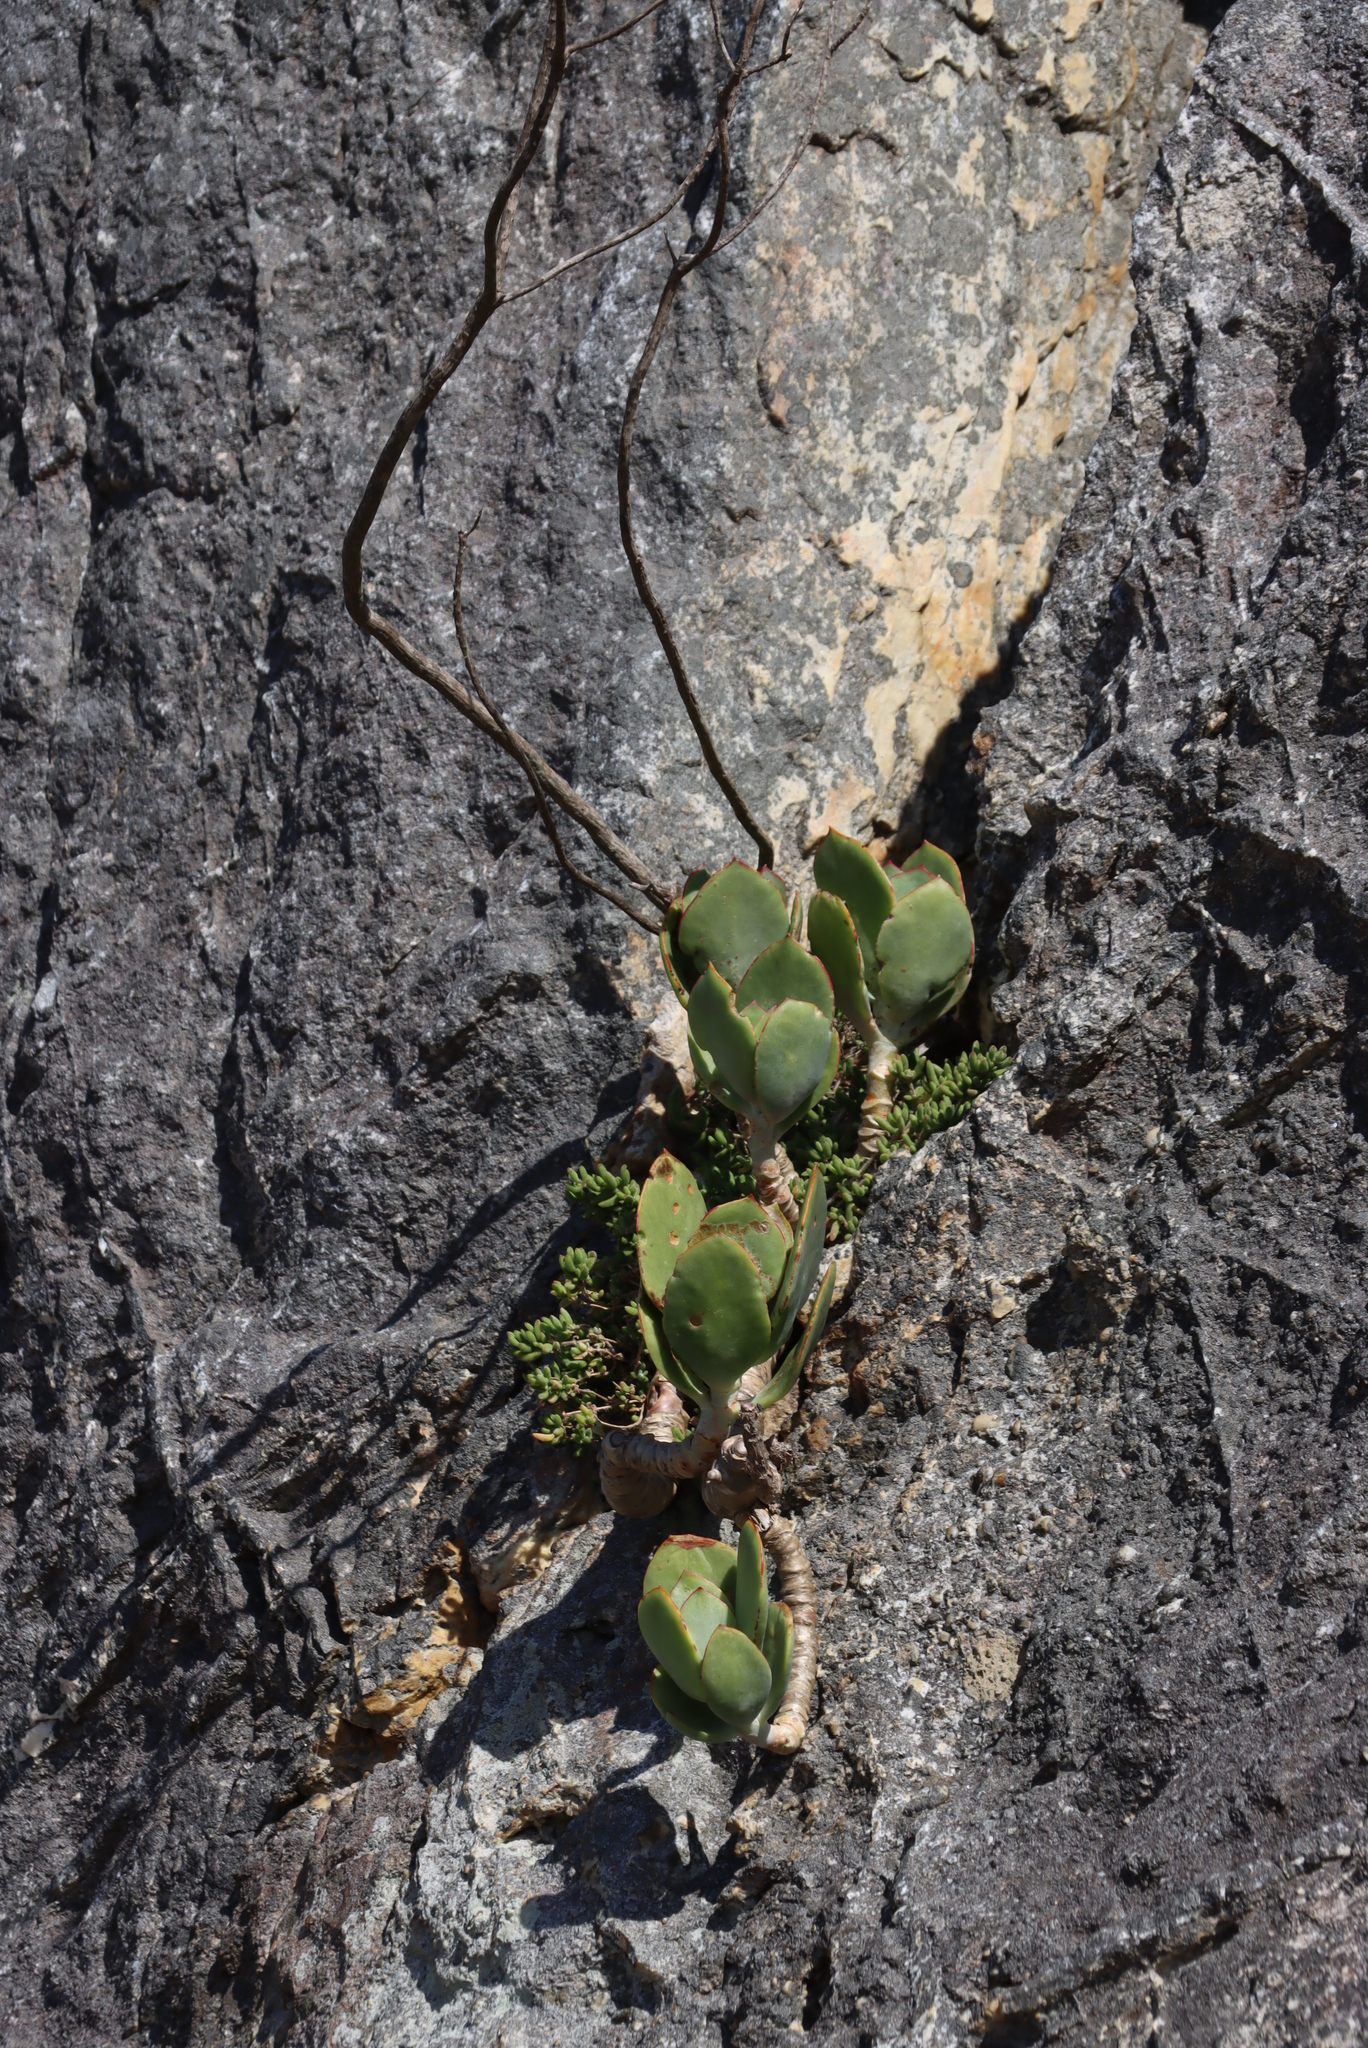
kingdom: Plantae
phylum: Tracheophyta
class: Magnoliopsida
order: Saxifragales
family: Crassulaceae
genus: Cotyledon
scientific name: Cotyledon orbiculata
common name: Pig's ear
